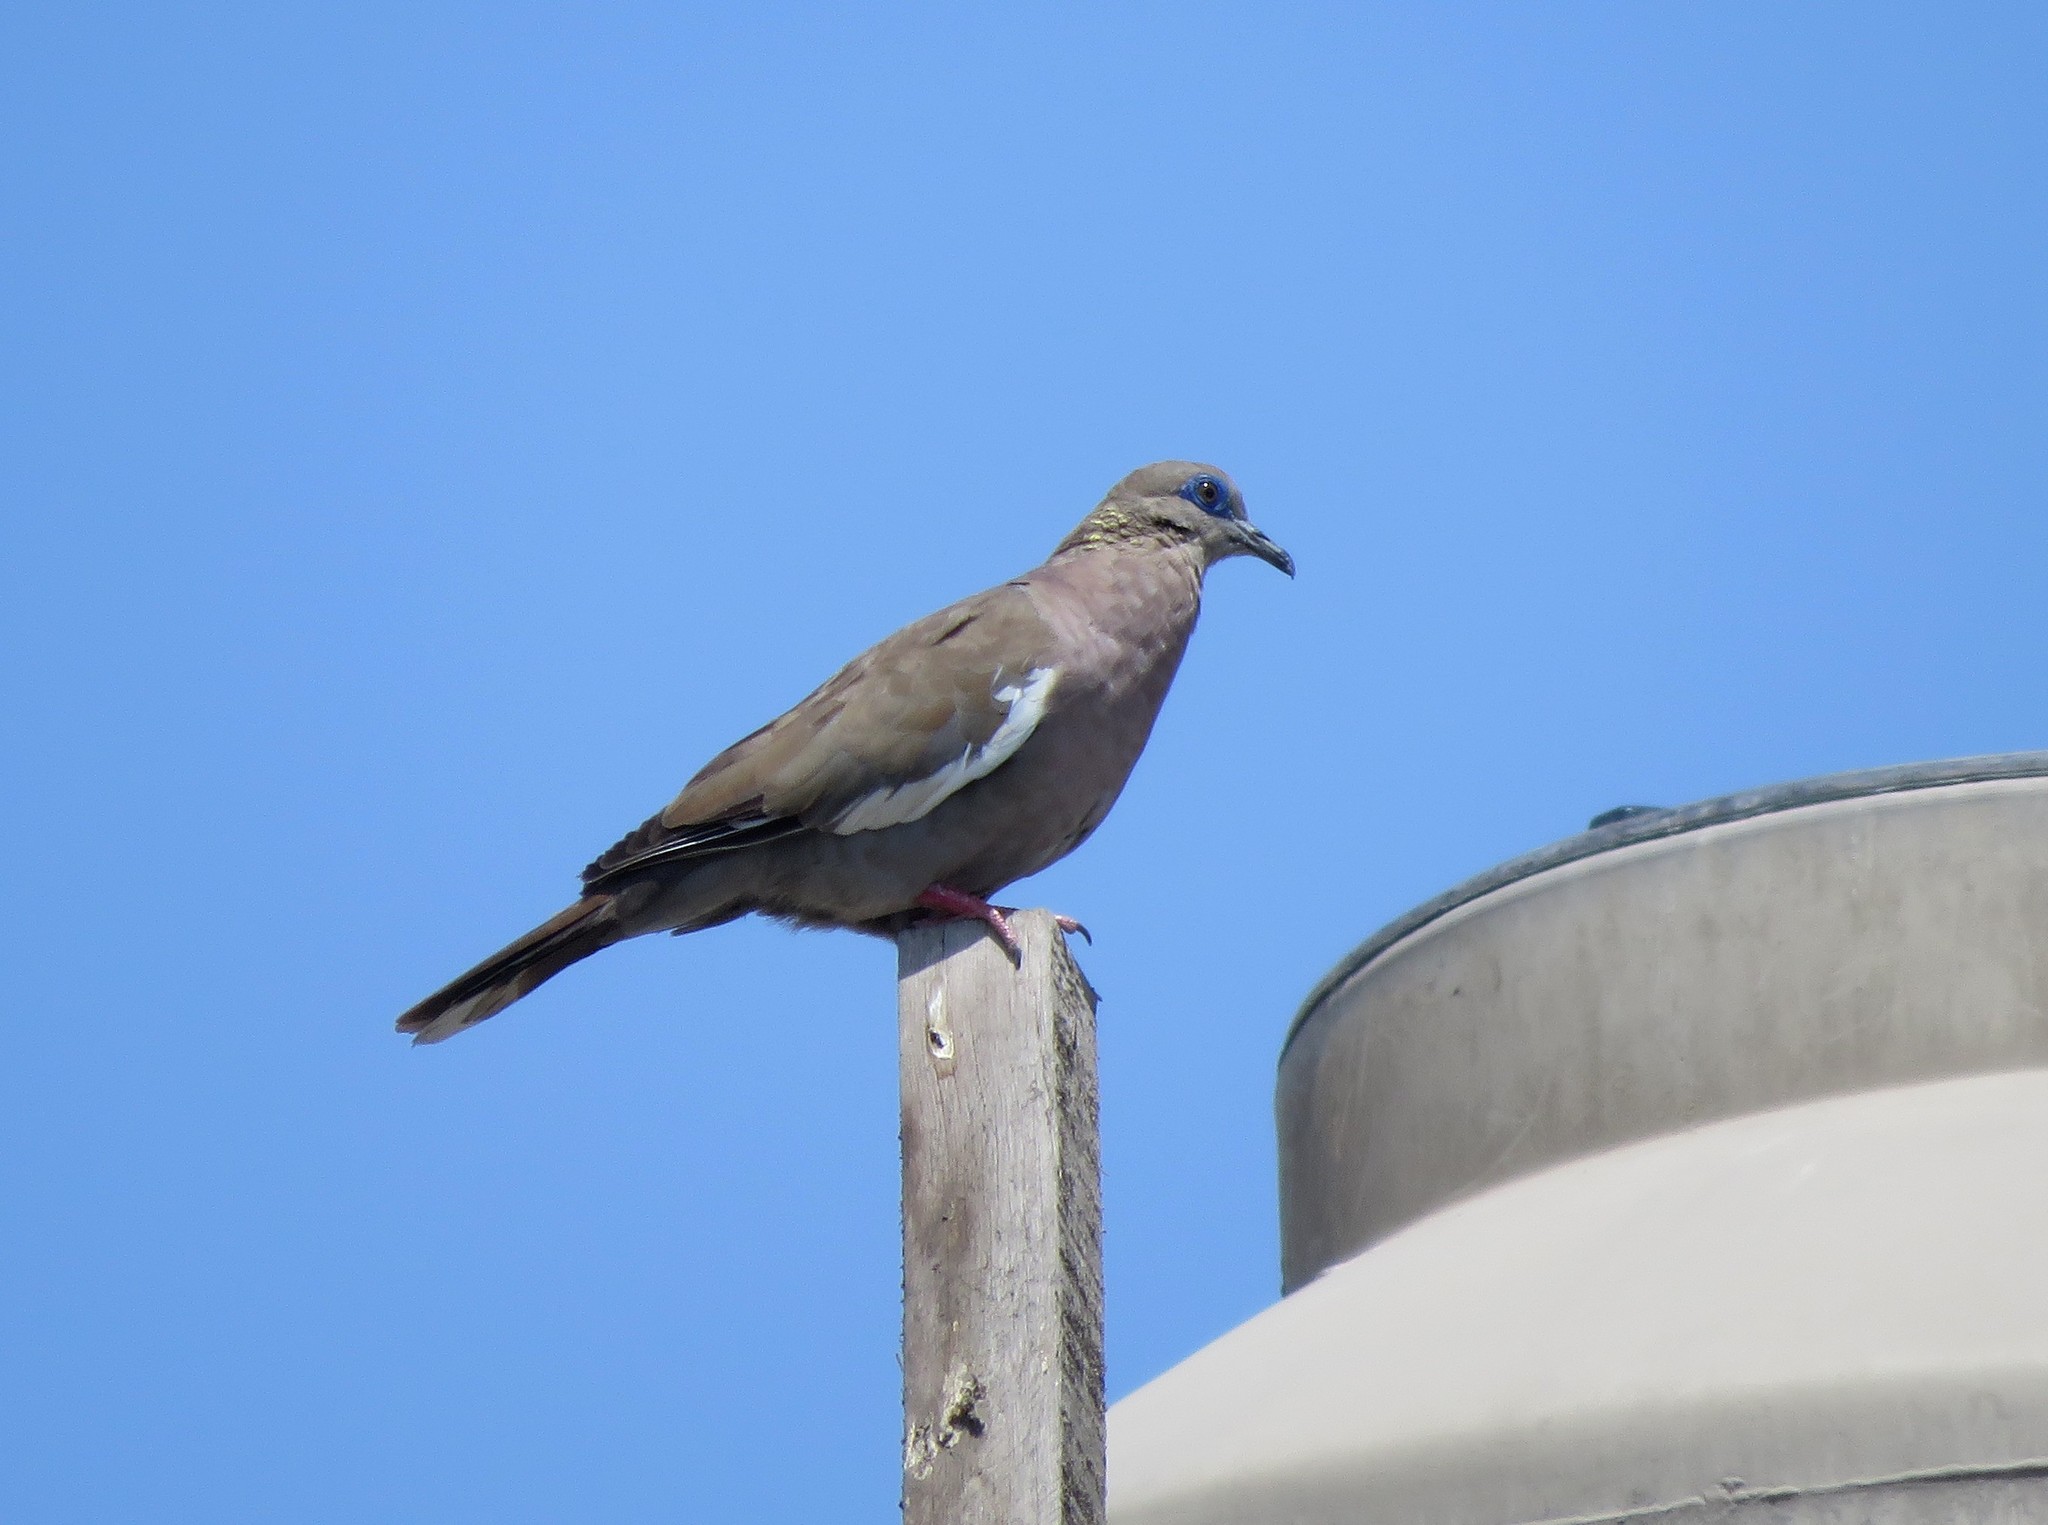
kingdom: Animalia
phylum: Chordata
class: Aves
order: Columbiformes
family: Columbidae
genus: Zenaida
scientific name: Zenaida meloda
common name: West peruvian dove
